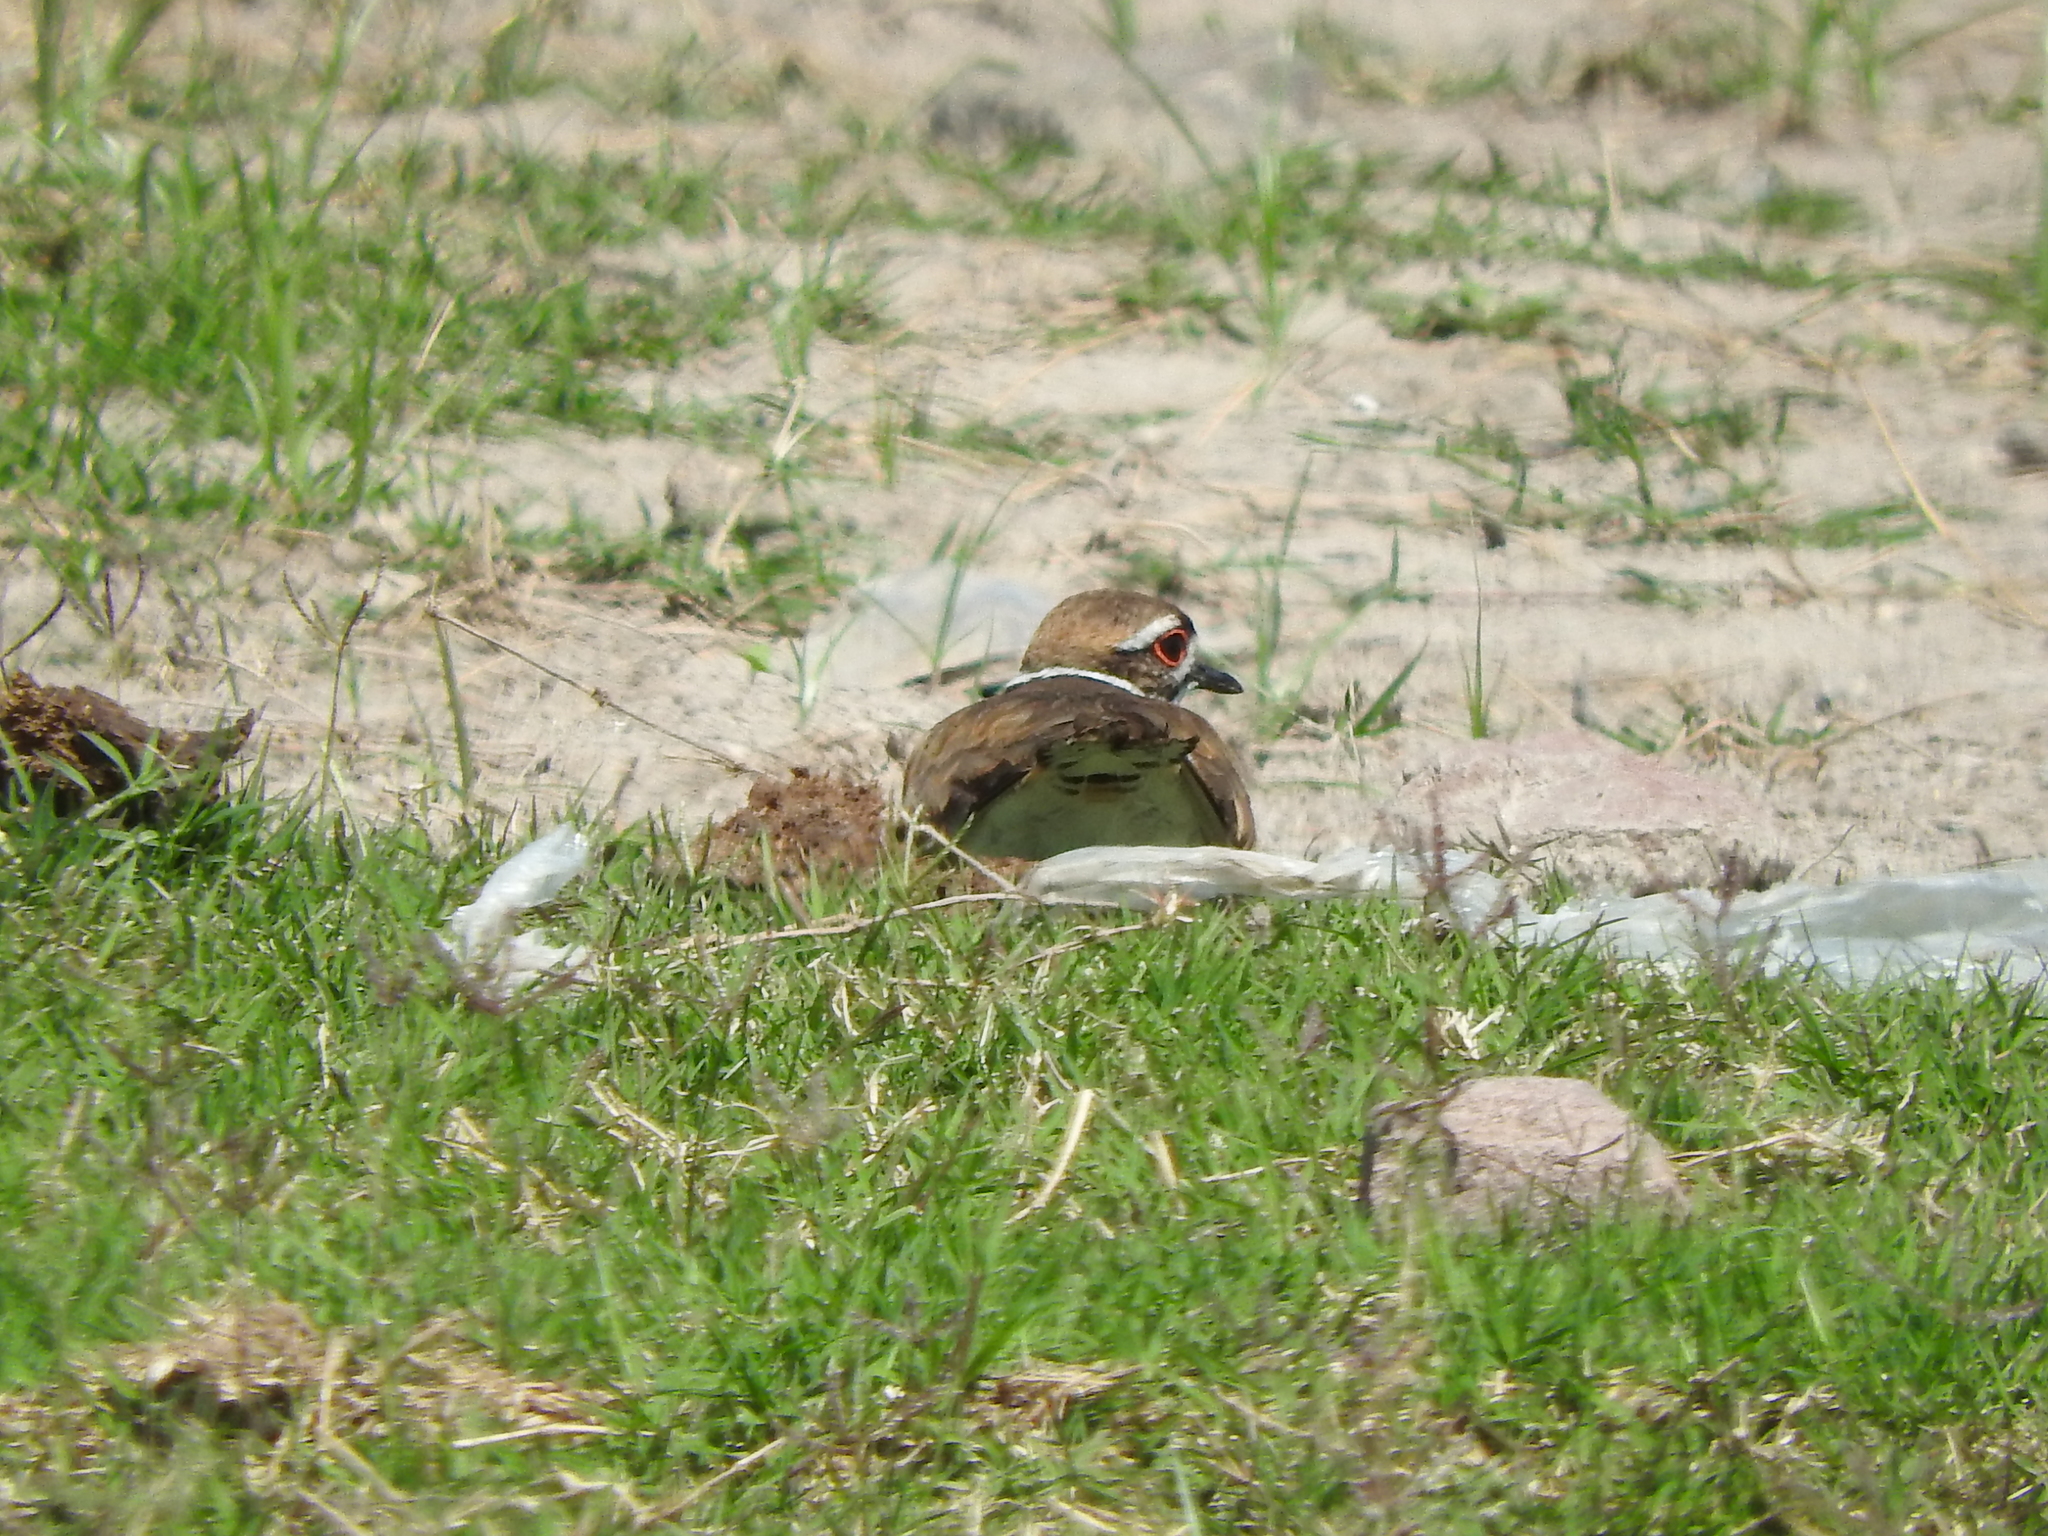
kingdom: Animalia
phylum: Chordata
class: Aves
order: Charadriiformes
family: Charadriidae
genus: Charadrius
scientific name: Charadrius vociferus
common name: Killdeer
